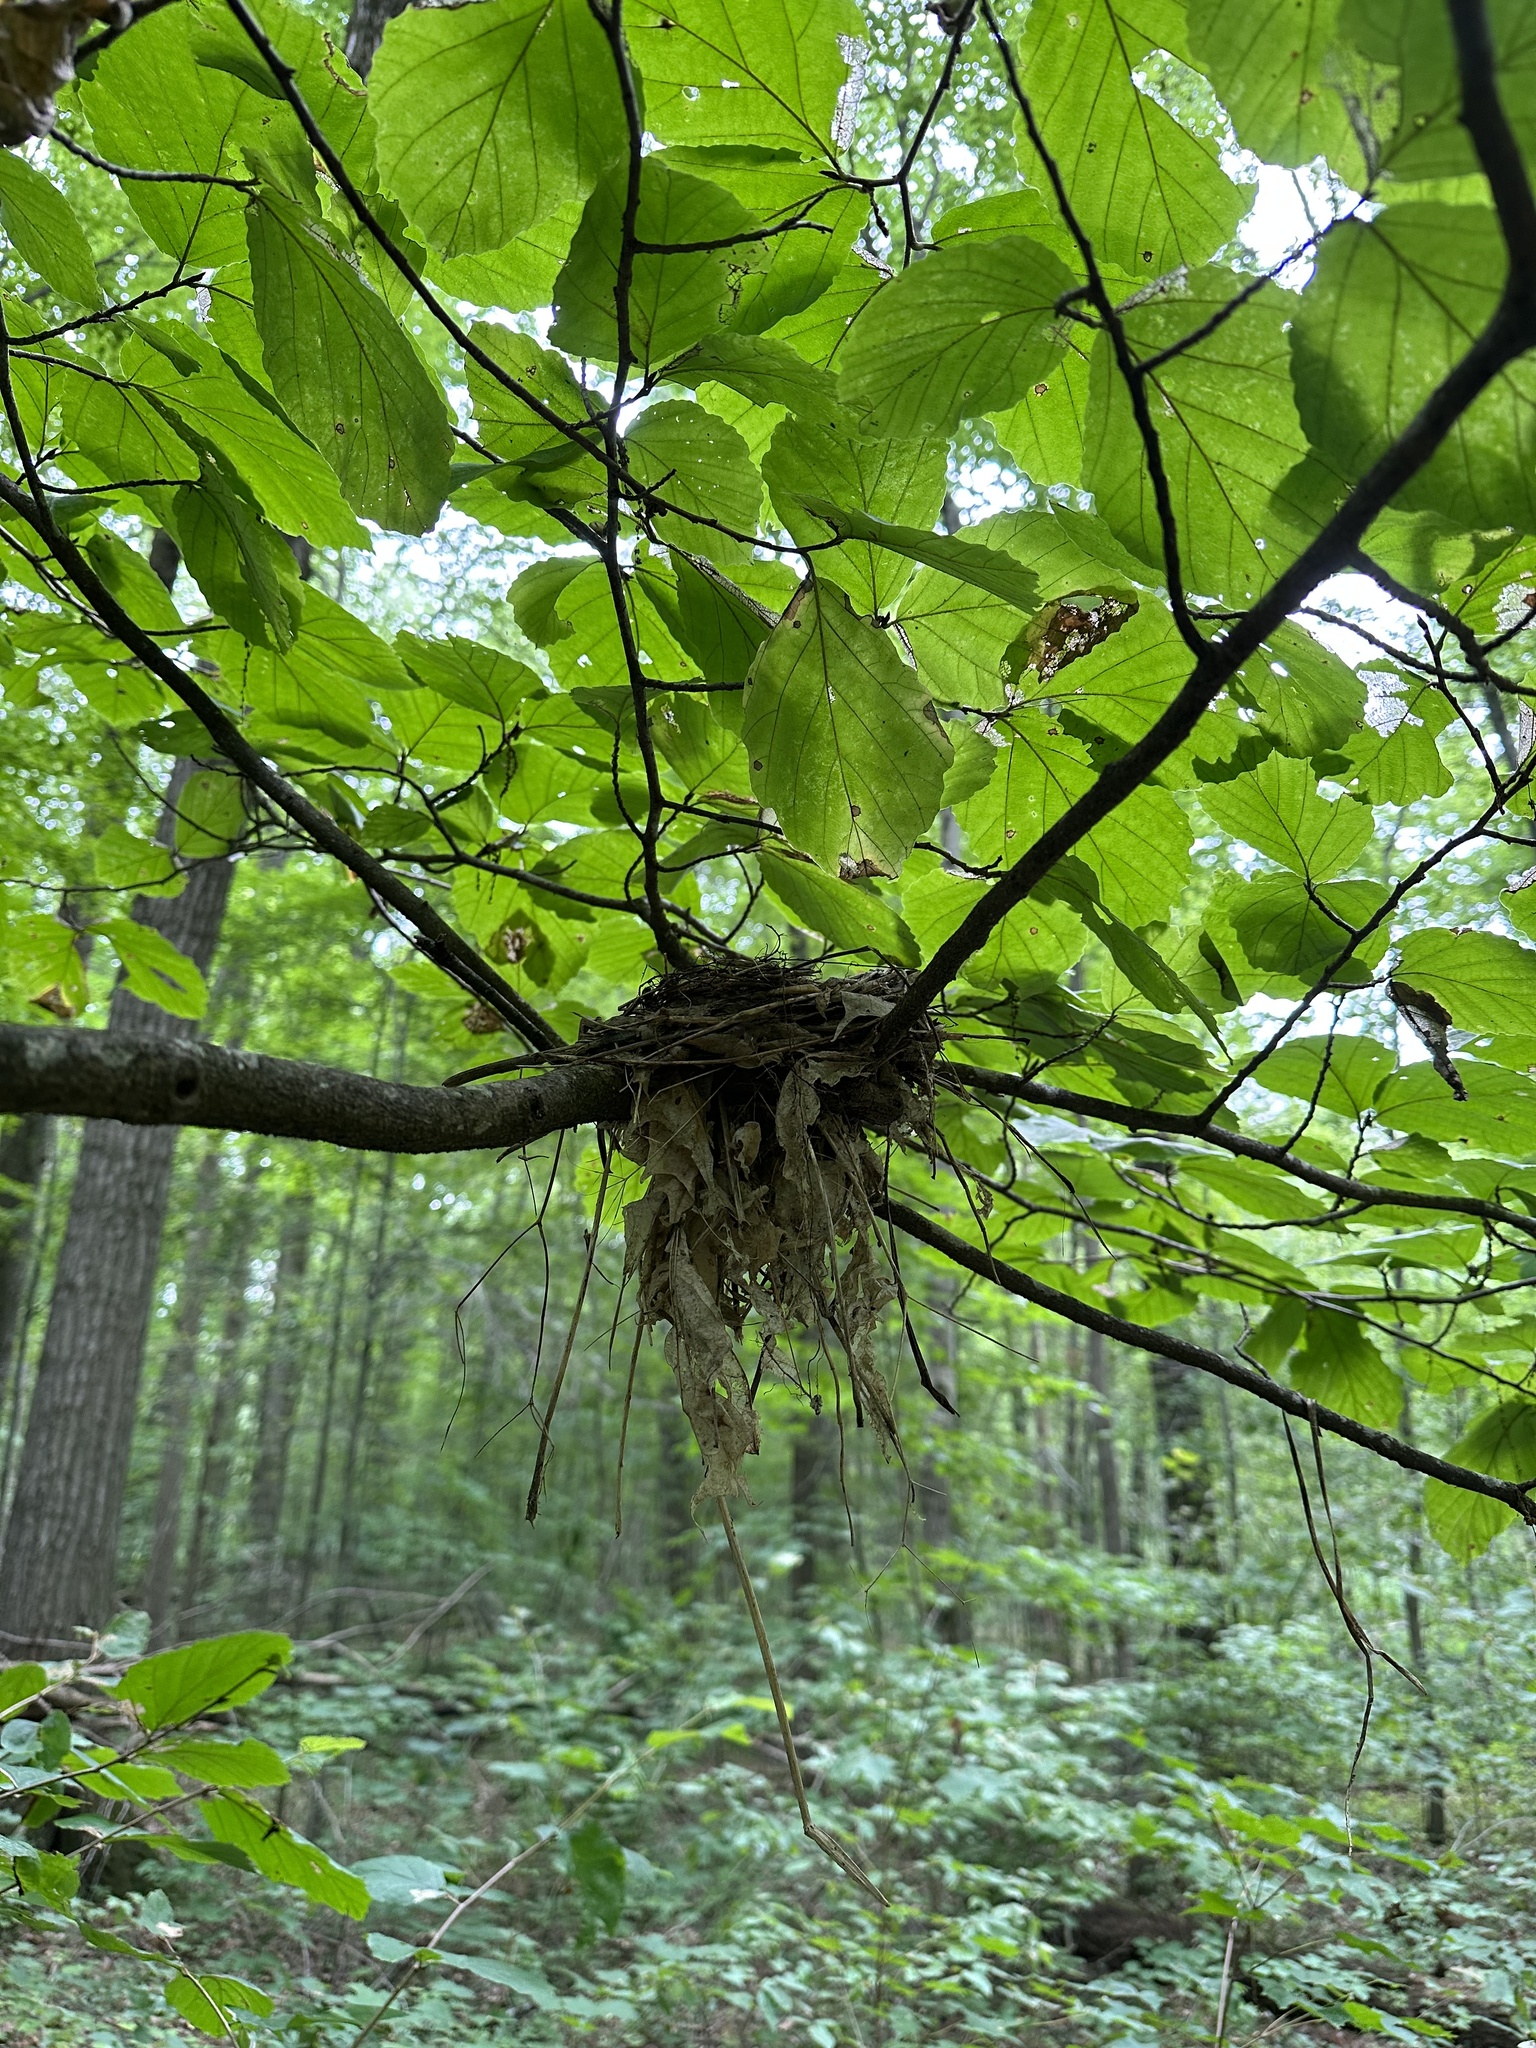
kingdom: Animalia
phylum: Chordata
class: Aves
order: Passeriformes
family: Turdidae
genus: Hylocichla
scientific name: Hylocichla mustelina
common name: Wood thrush
